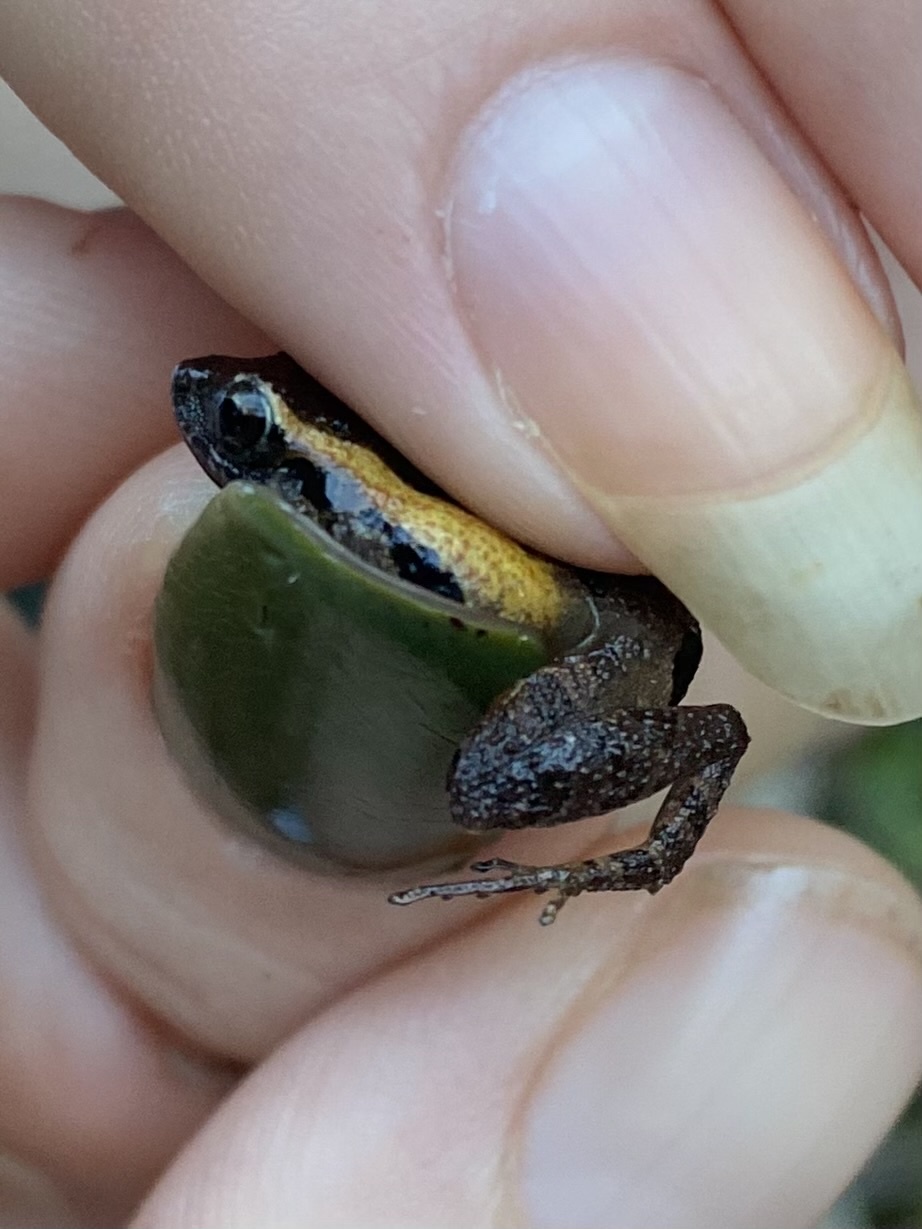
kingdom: Animalia
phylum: Chordata
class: Amphibia
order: Anura
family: Craugastoridae
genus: Craugastor
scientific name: Craugastor stejnegerianus
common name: Stejneger's robber frog
